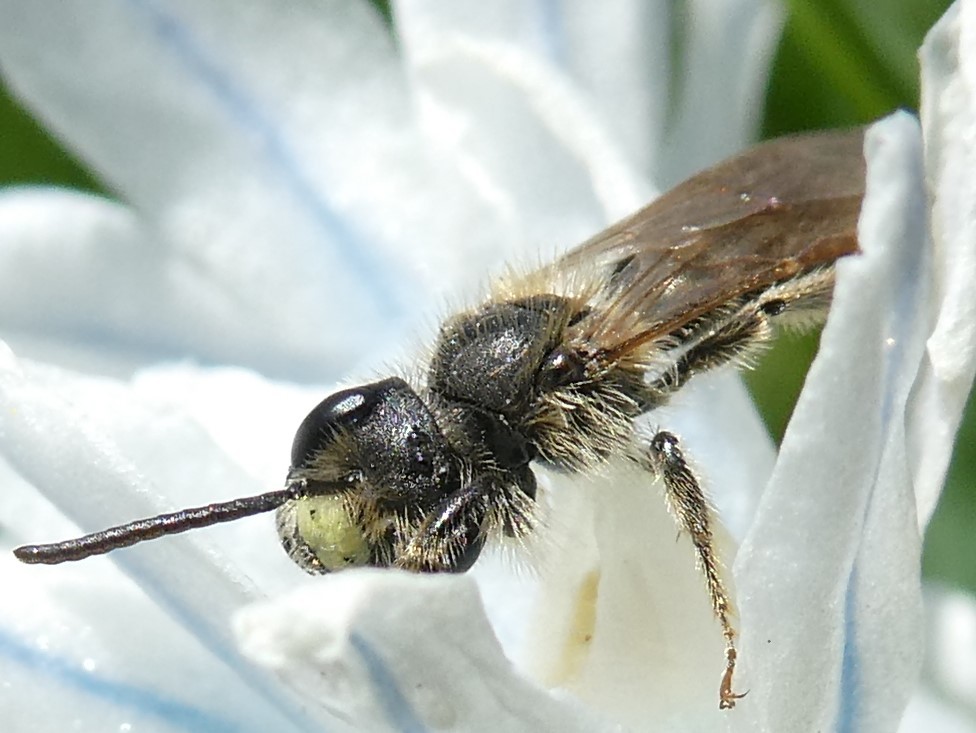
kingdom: Animalia
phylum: Arthropoda
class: Insecta
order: Hymenoptera
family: Andrenidae
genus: Andrena
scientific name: Andrena miserabilis
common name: Miserable mining bee
